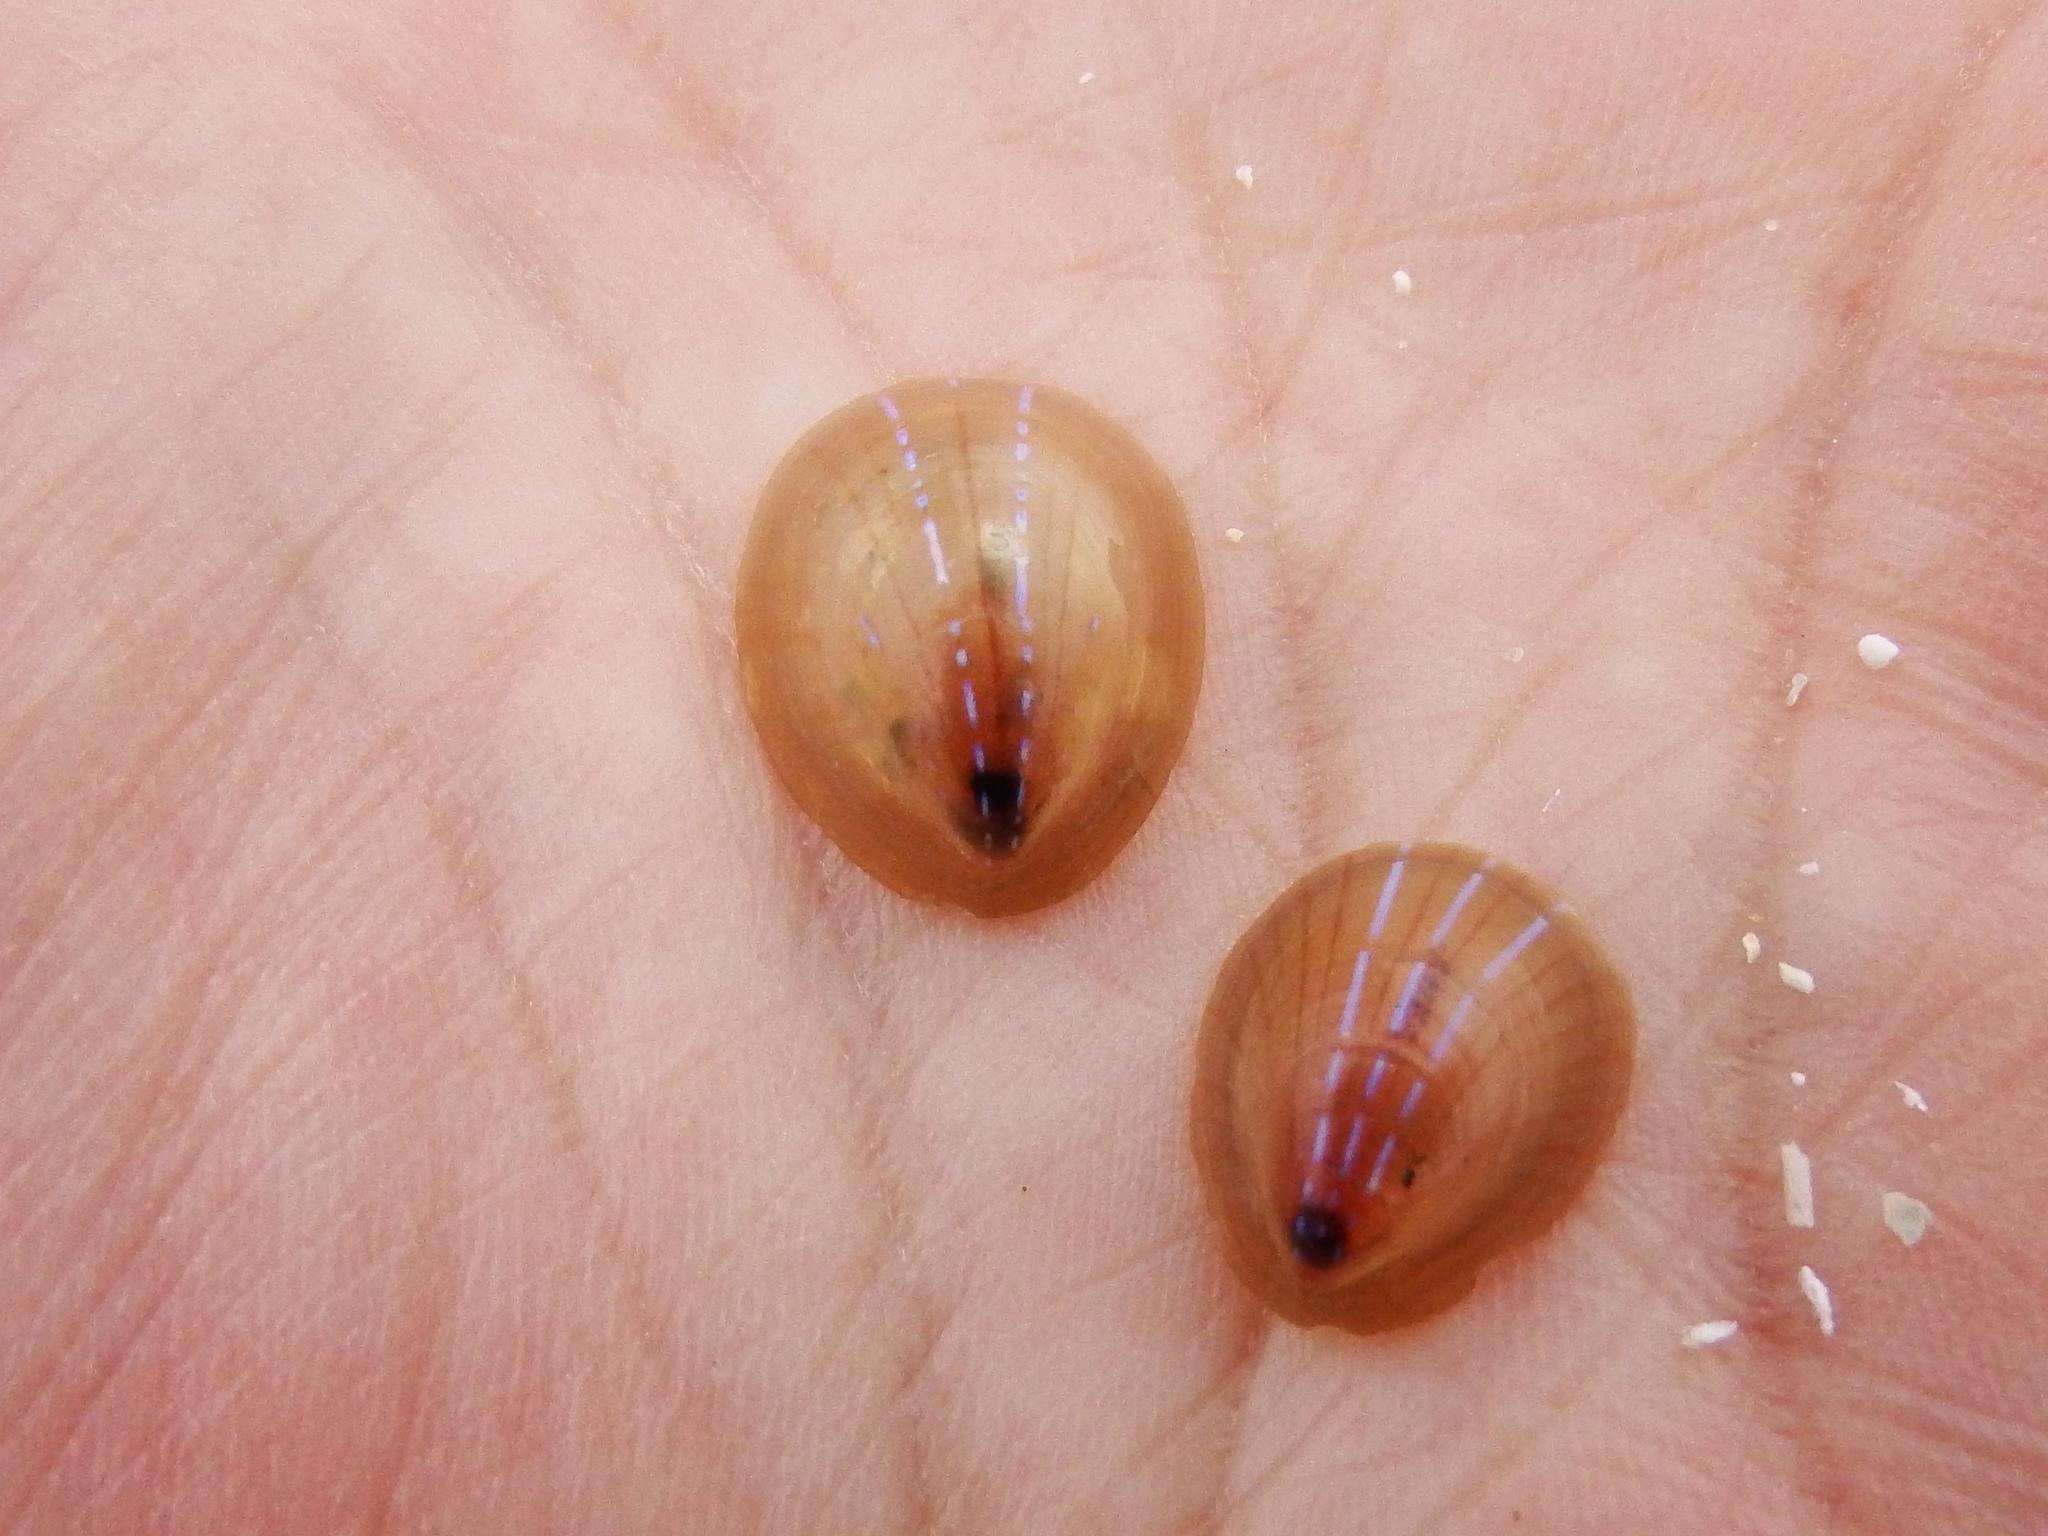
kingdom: Animalia
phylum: Mollusca
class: Gastropoda
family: Patellidae
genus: Patella
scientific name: Patella pellucida
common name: Blue-rayed limpet
